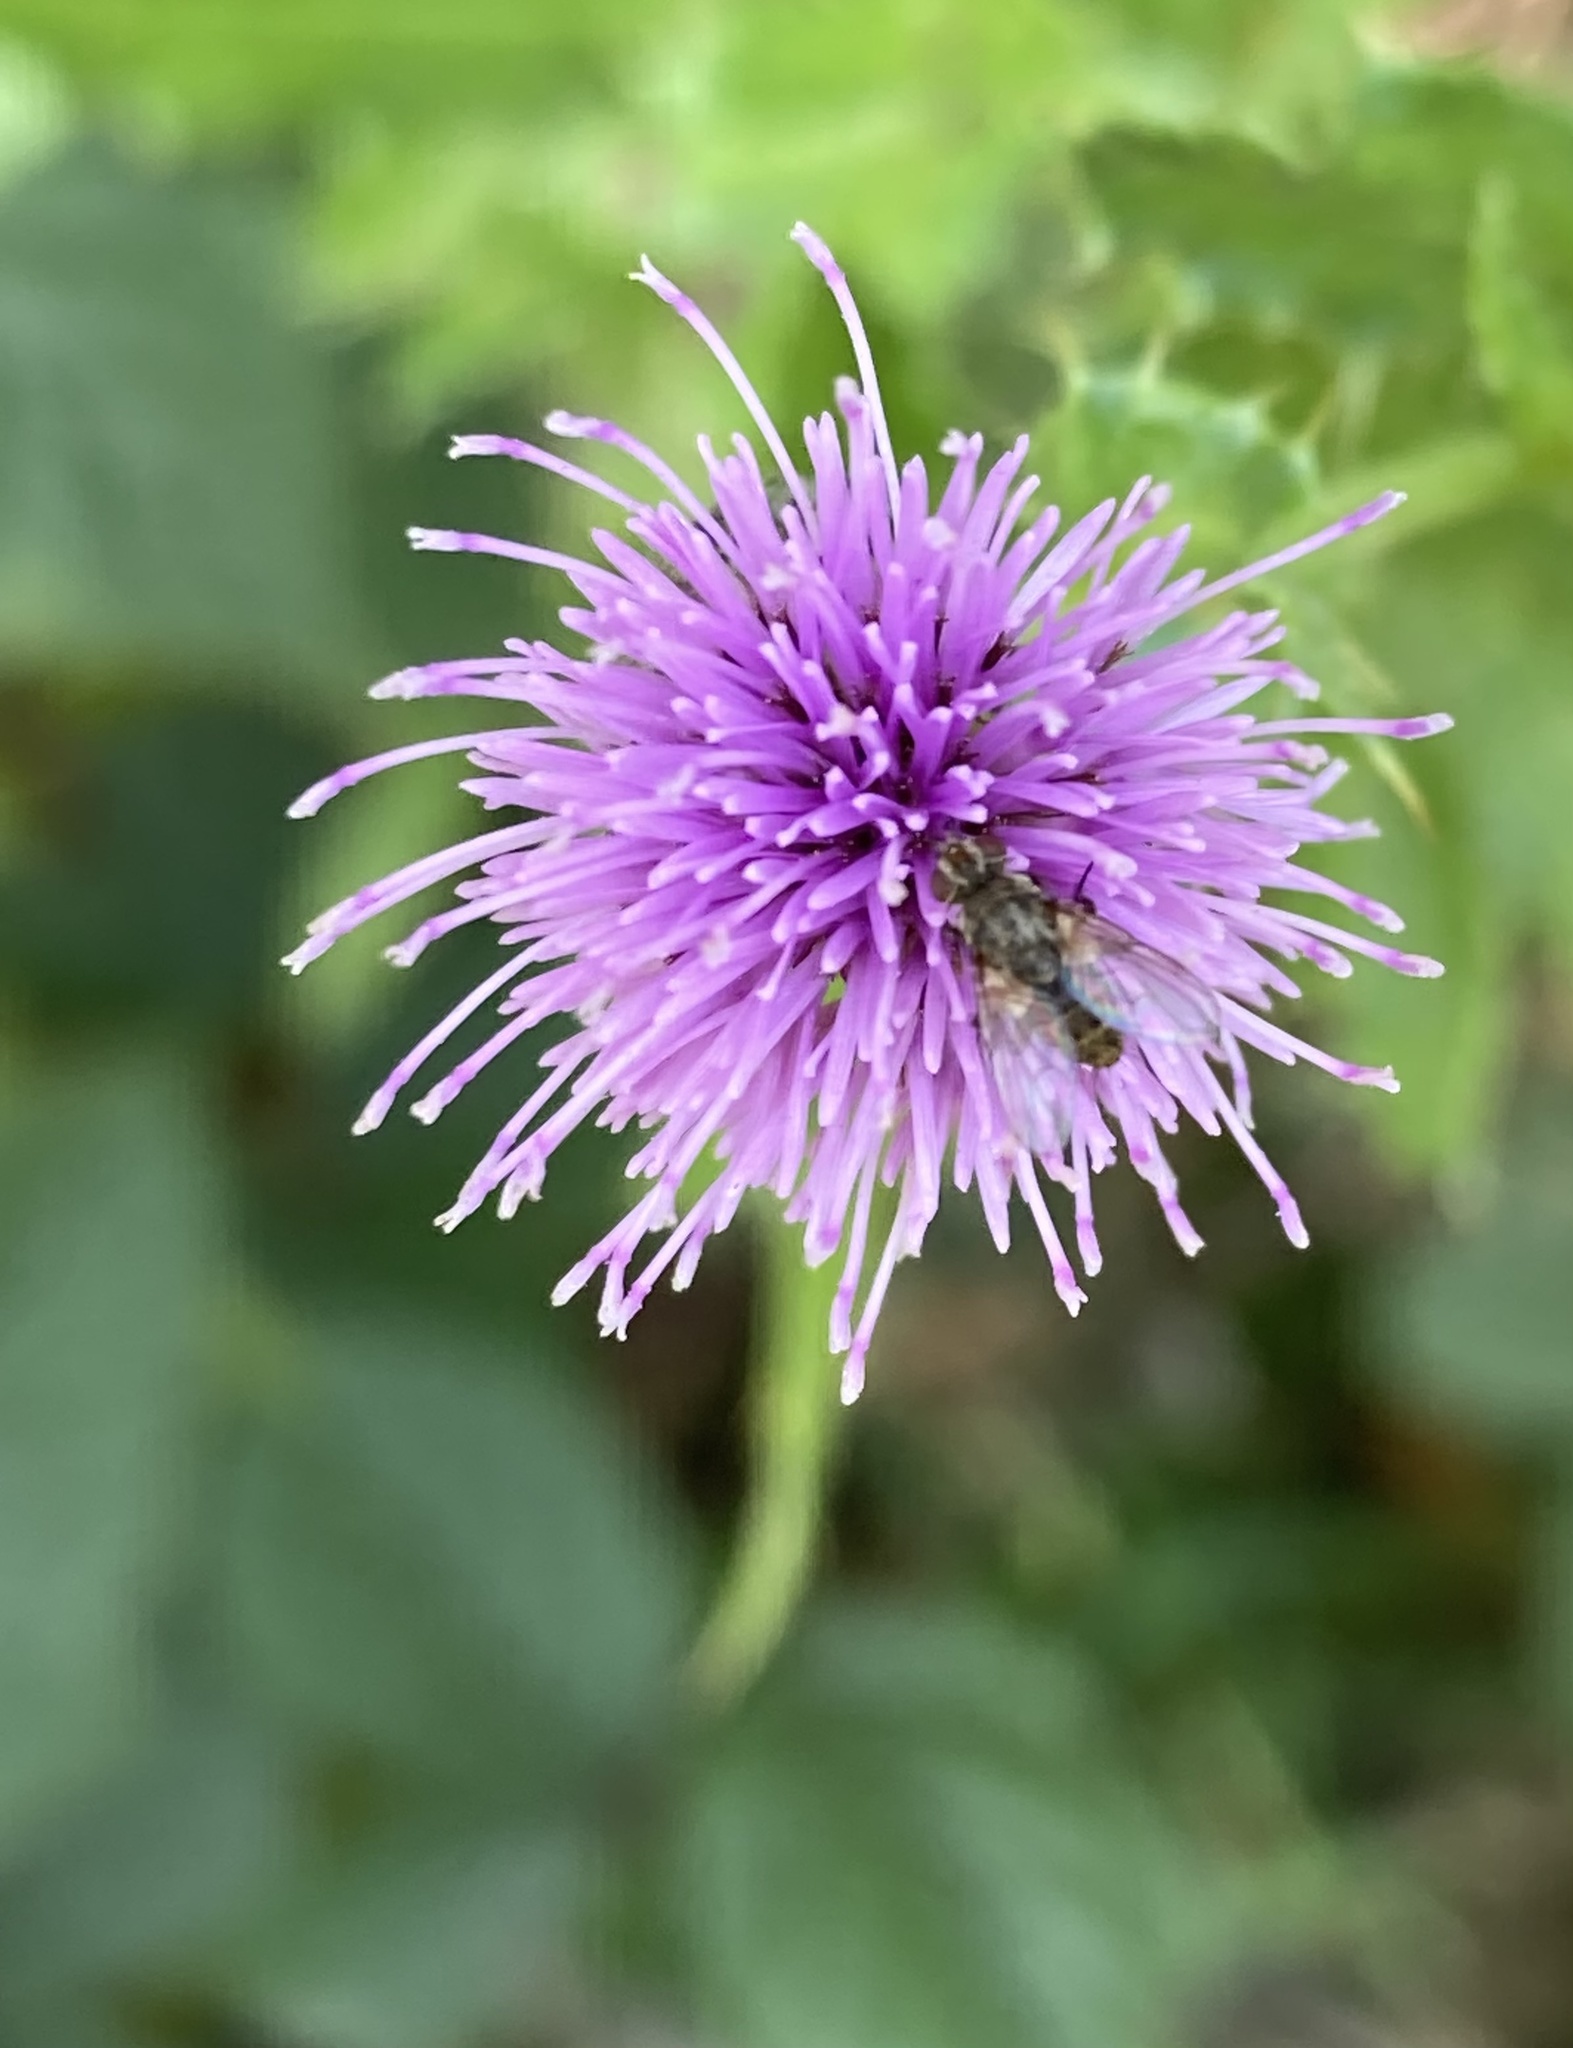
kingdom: Animalia
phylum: Arthropoda
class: Insecta
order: Diptera
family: Tachinidae
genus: Siphona
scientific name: Siphona
